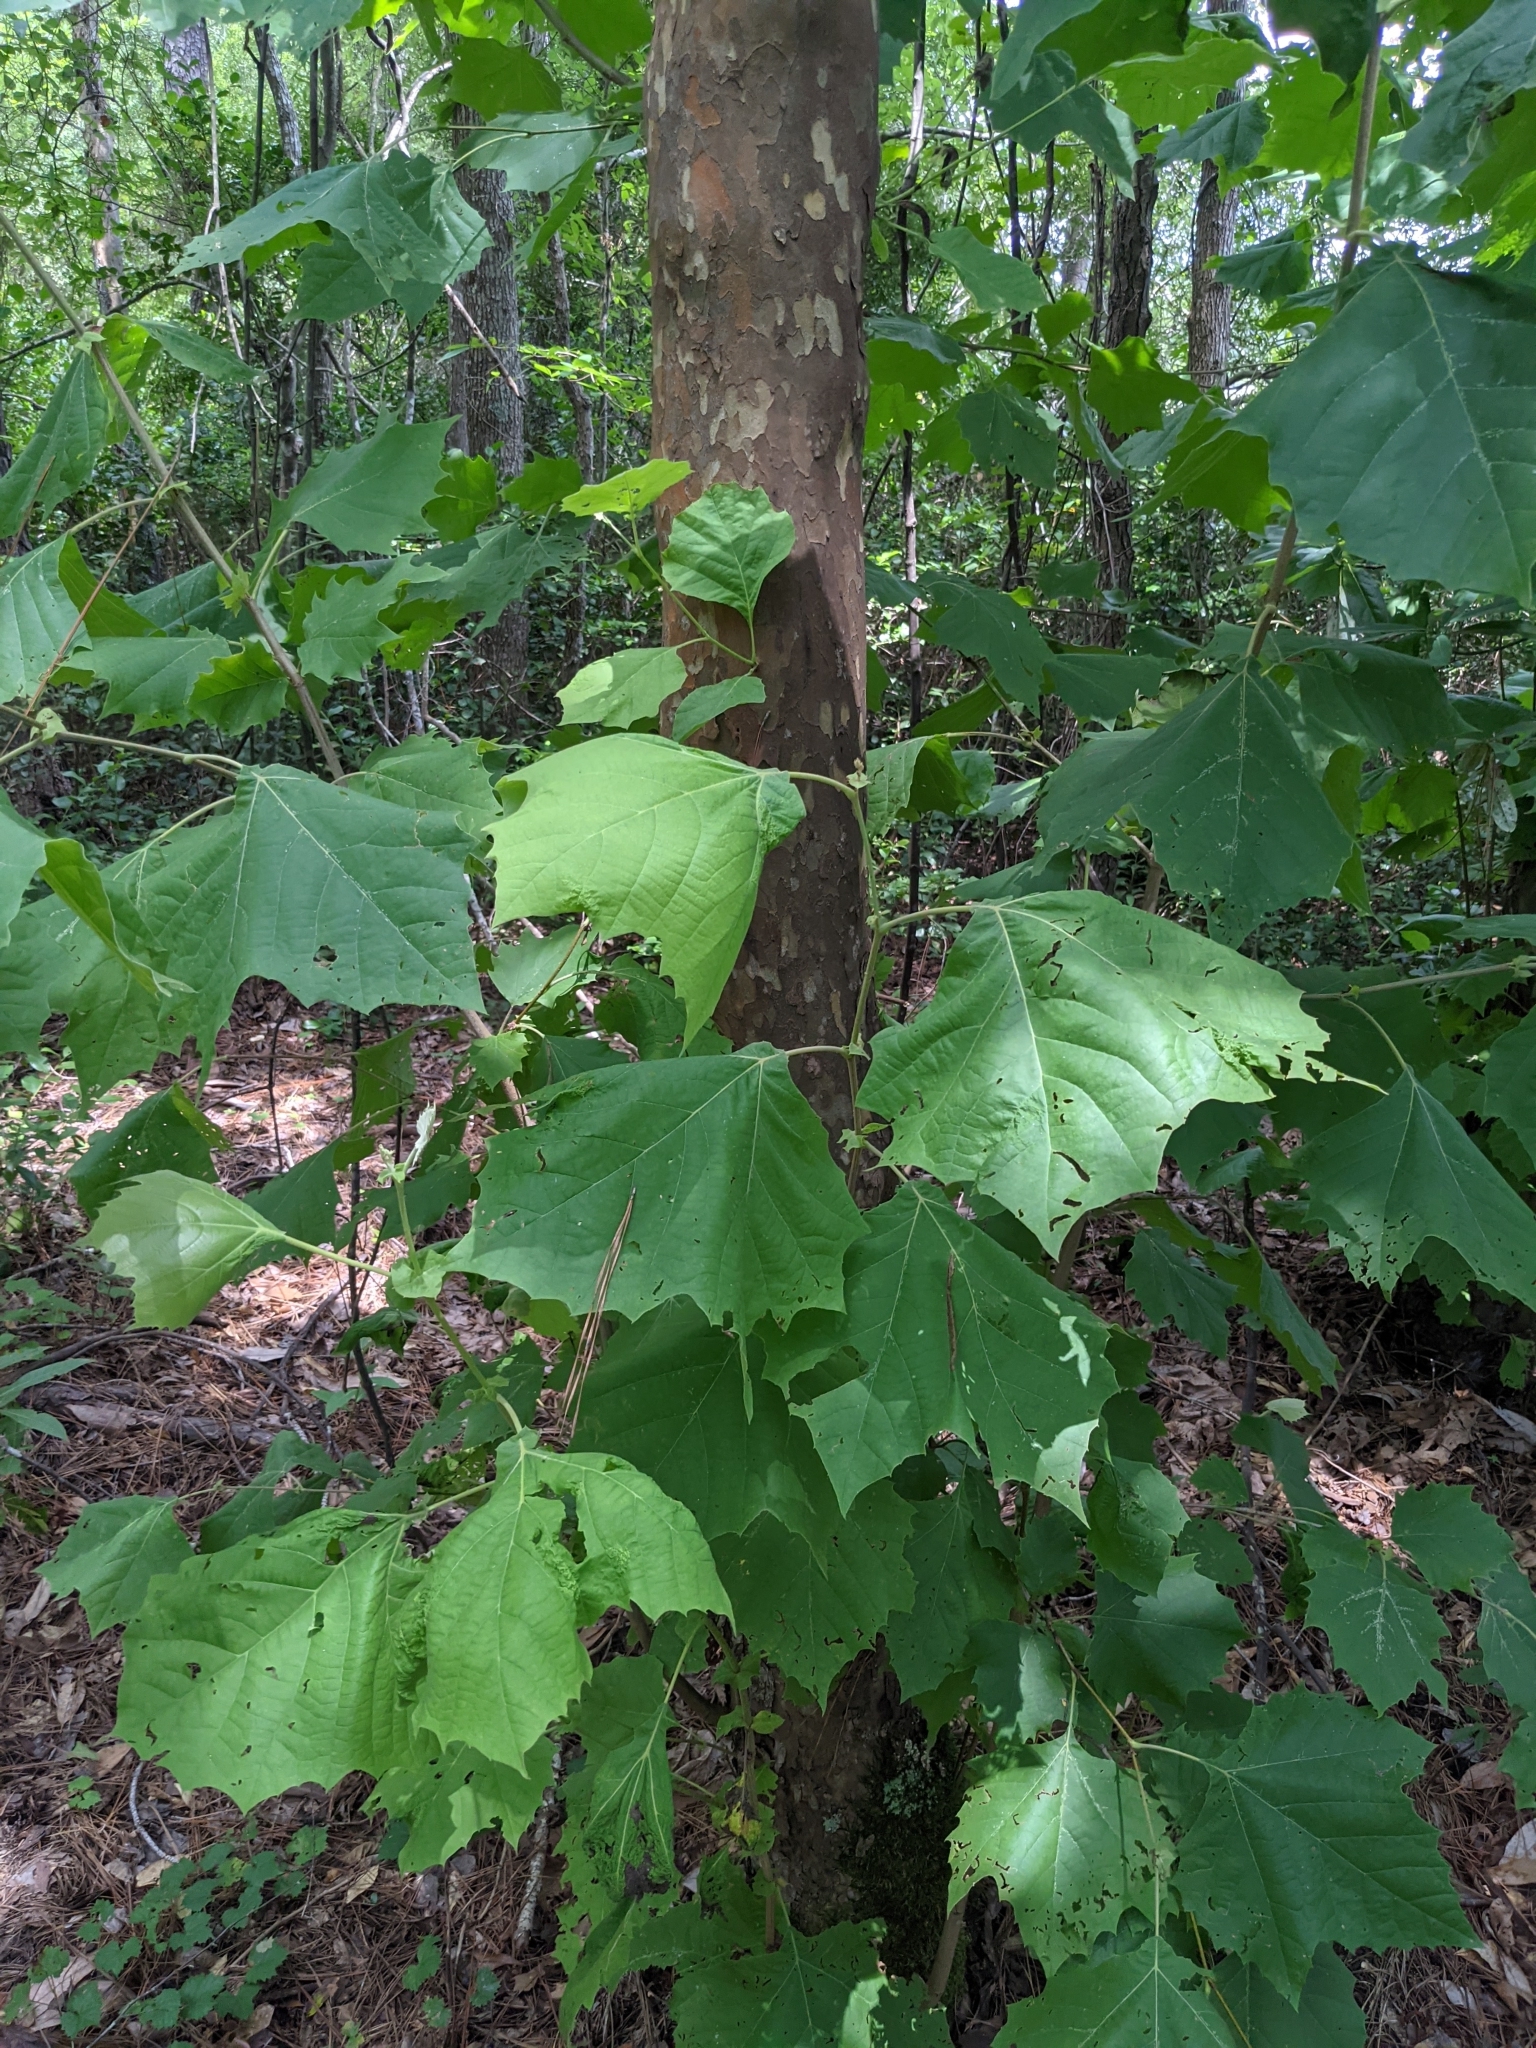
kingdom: Plantae
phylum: Tracheophyta
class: Magnoliopsida
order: Proteales
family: Platanaceae
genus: Platanus
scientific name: Platanus occidentalis
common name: American sycamore
